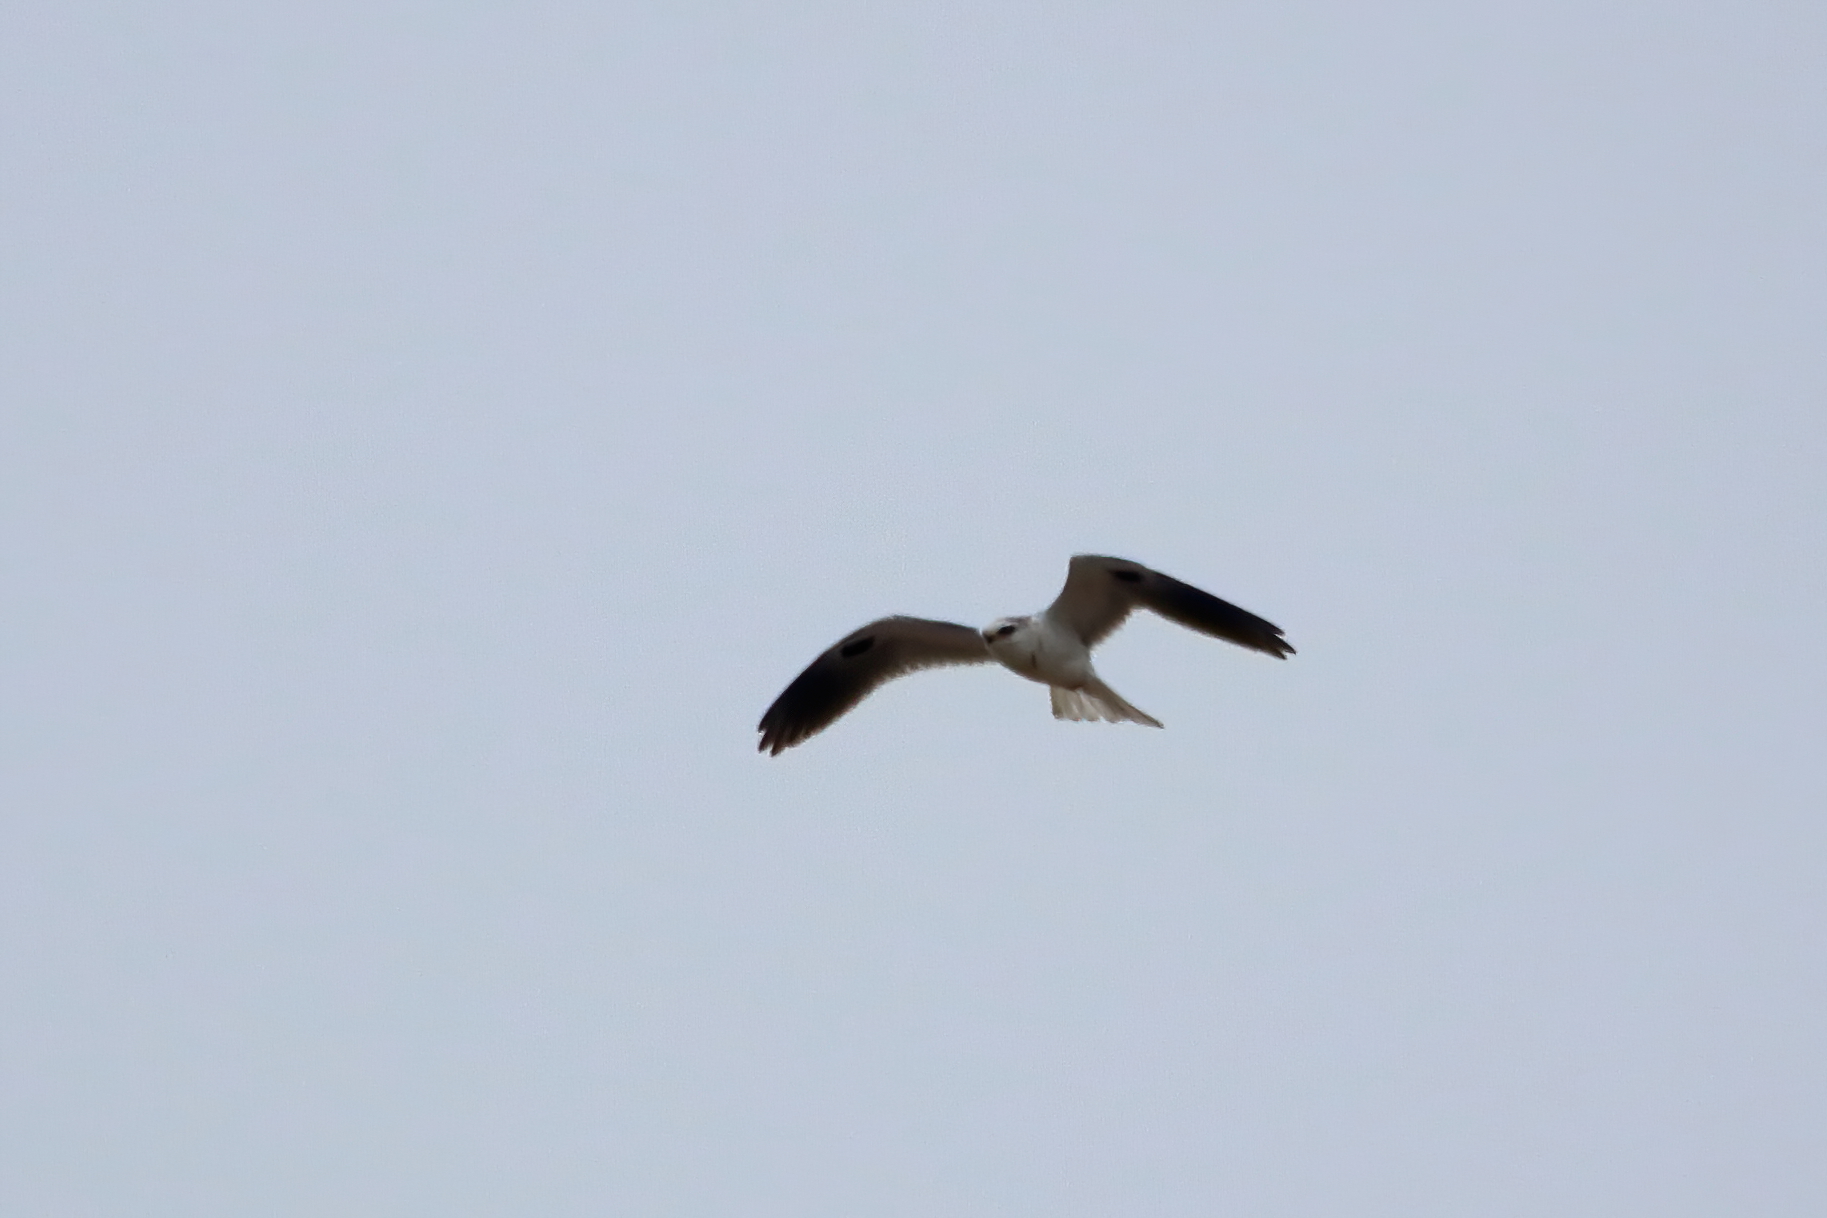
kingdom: Animalia
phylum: Chordata
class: Aves
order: Accipitriformes
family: Accipitridae
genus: Elanus
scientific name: Elanus leucurus
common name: White-tailed kite
